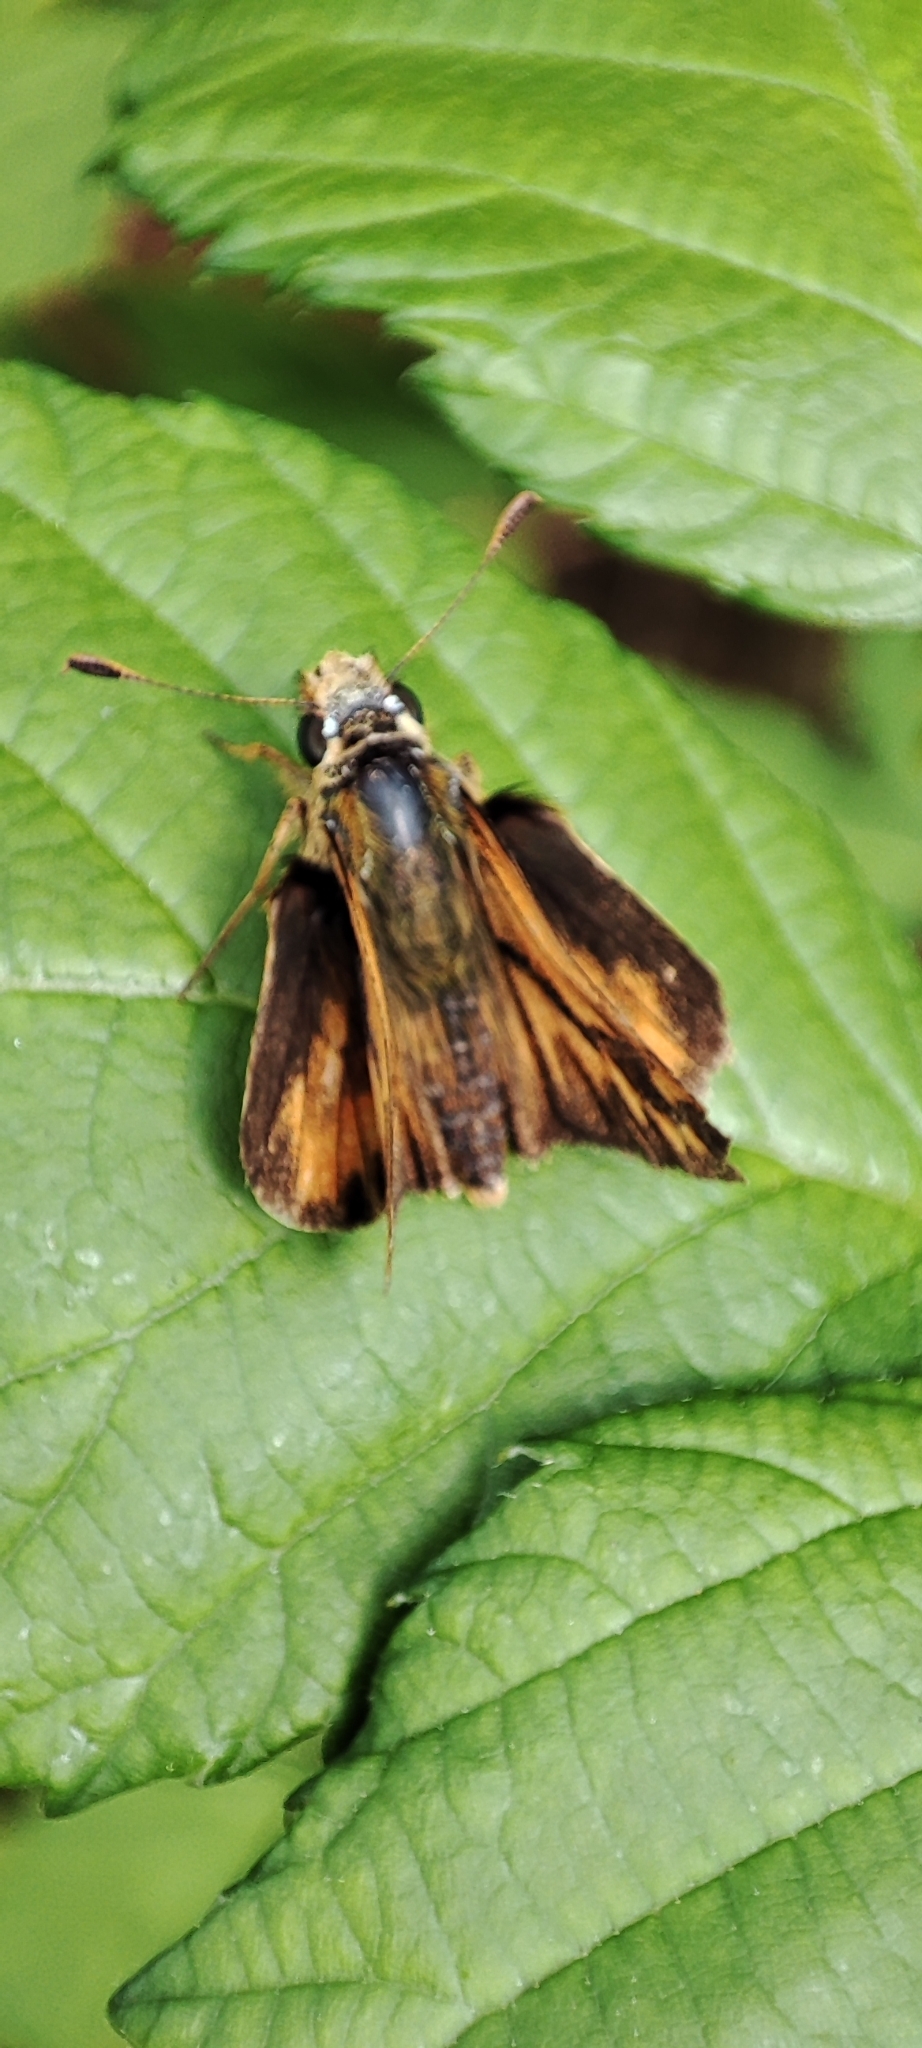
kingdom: Animalia
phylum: Arthropoda
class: Insecta
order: Lepidoptera
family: Hesperiidae
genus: Ochlodes
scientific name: Ochlodes sylvanoides
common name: Woodland skipper
